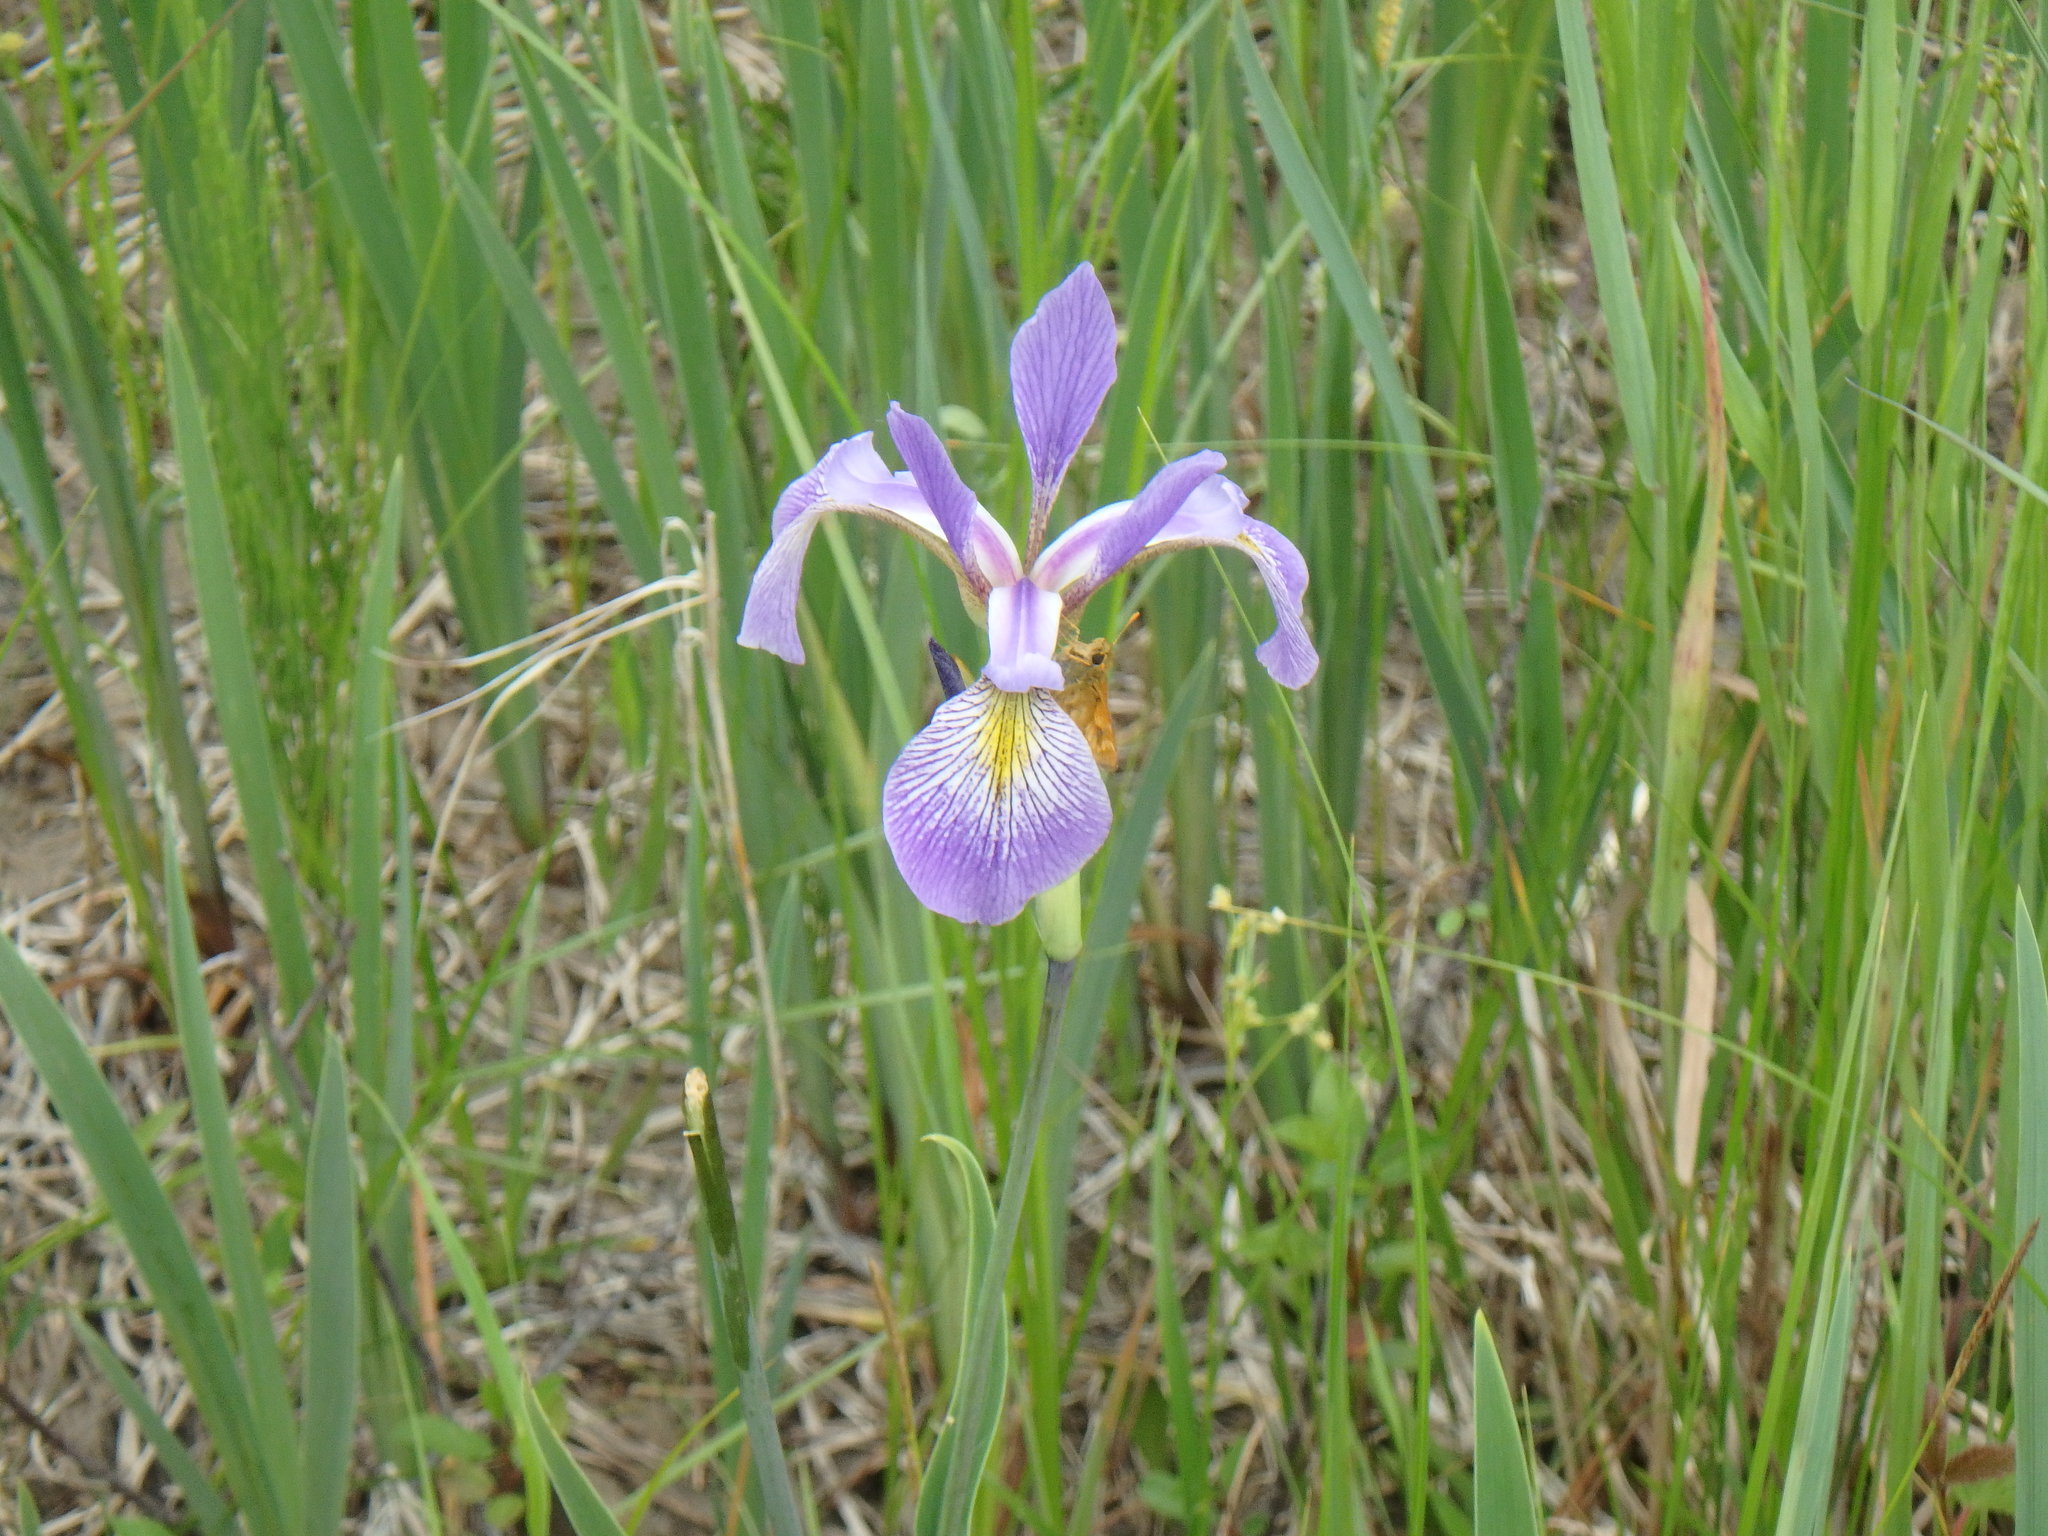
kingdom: Plantae
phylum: Tracheophyta
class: Liliopsida
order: Asparagales
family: Iridaceae
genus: Iris
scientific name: Iris versicolor
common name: Purple iris
